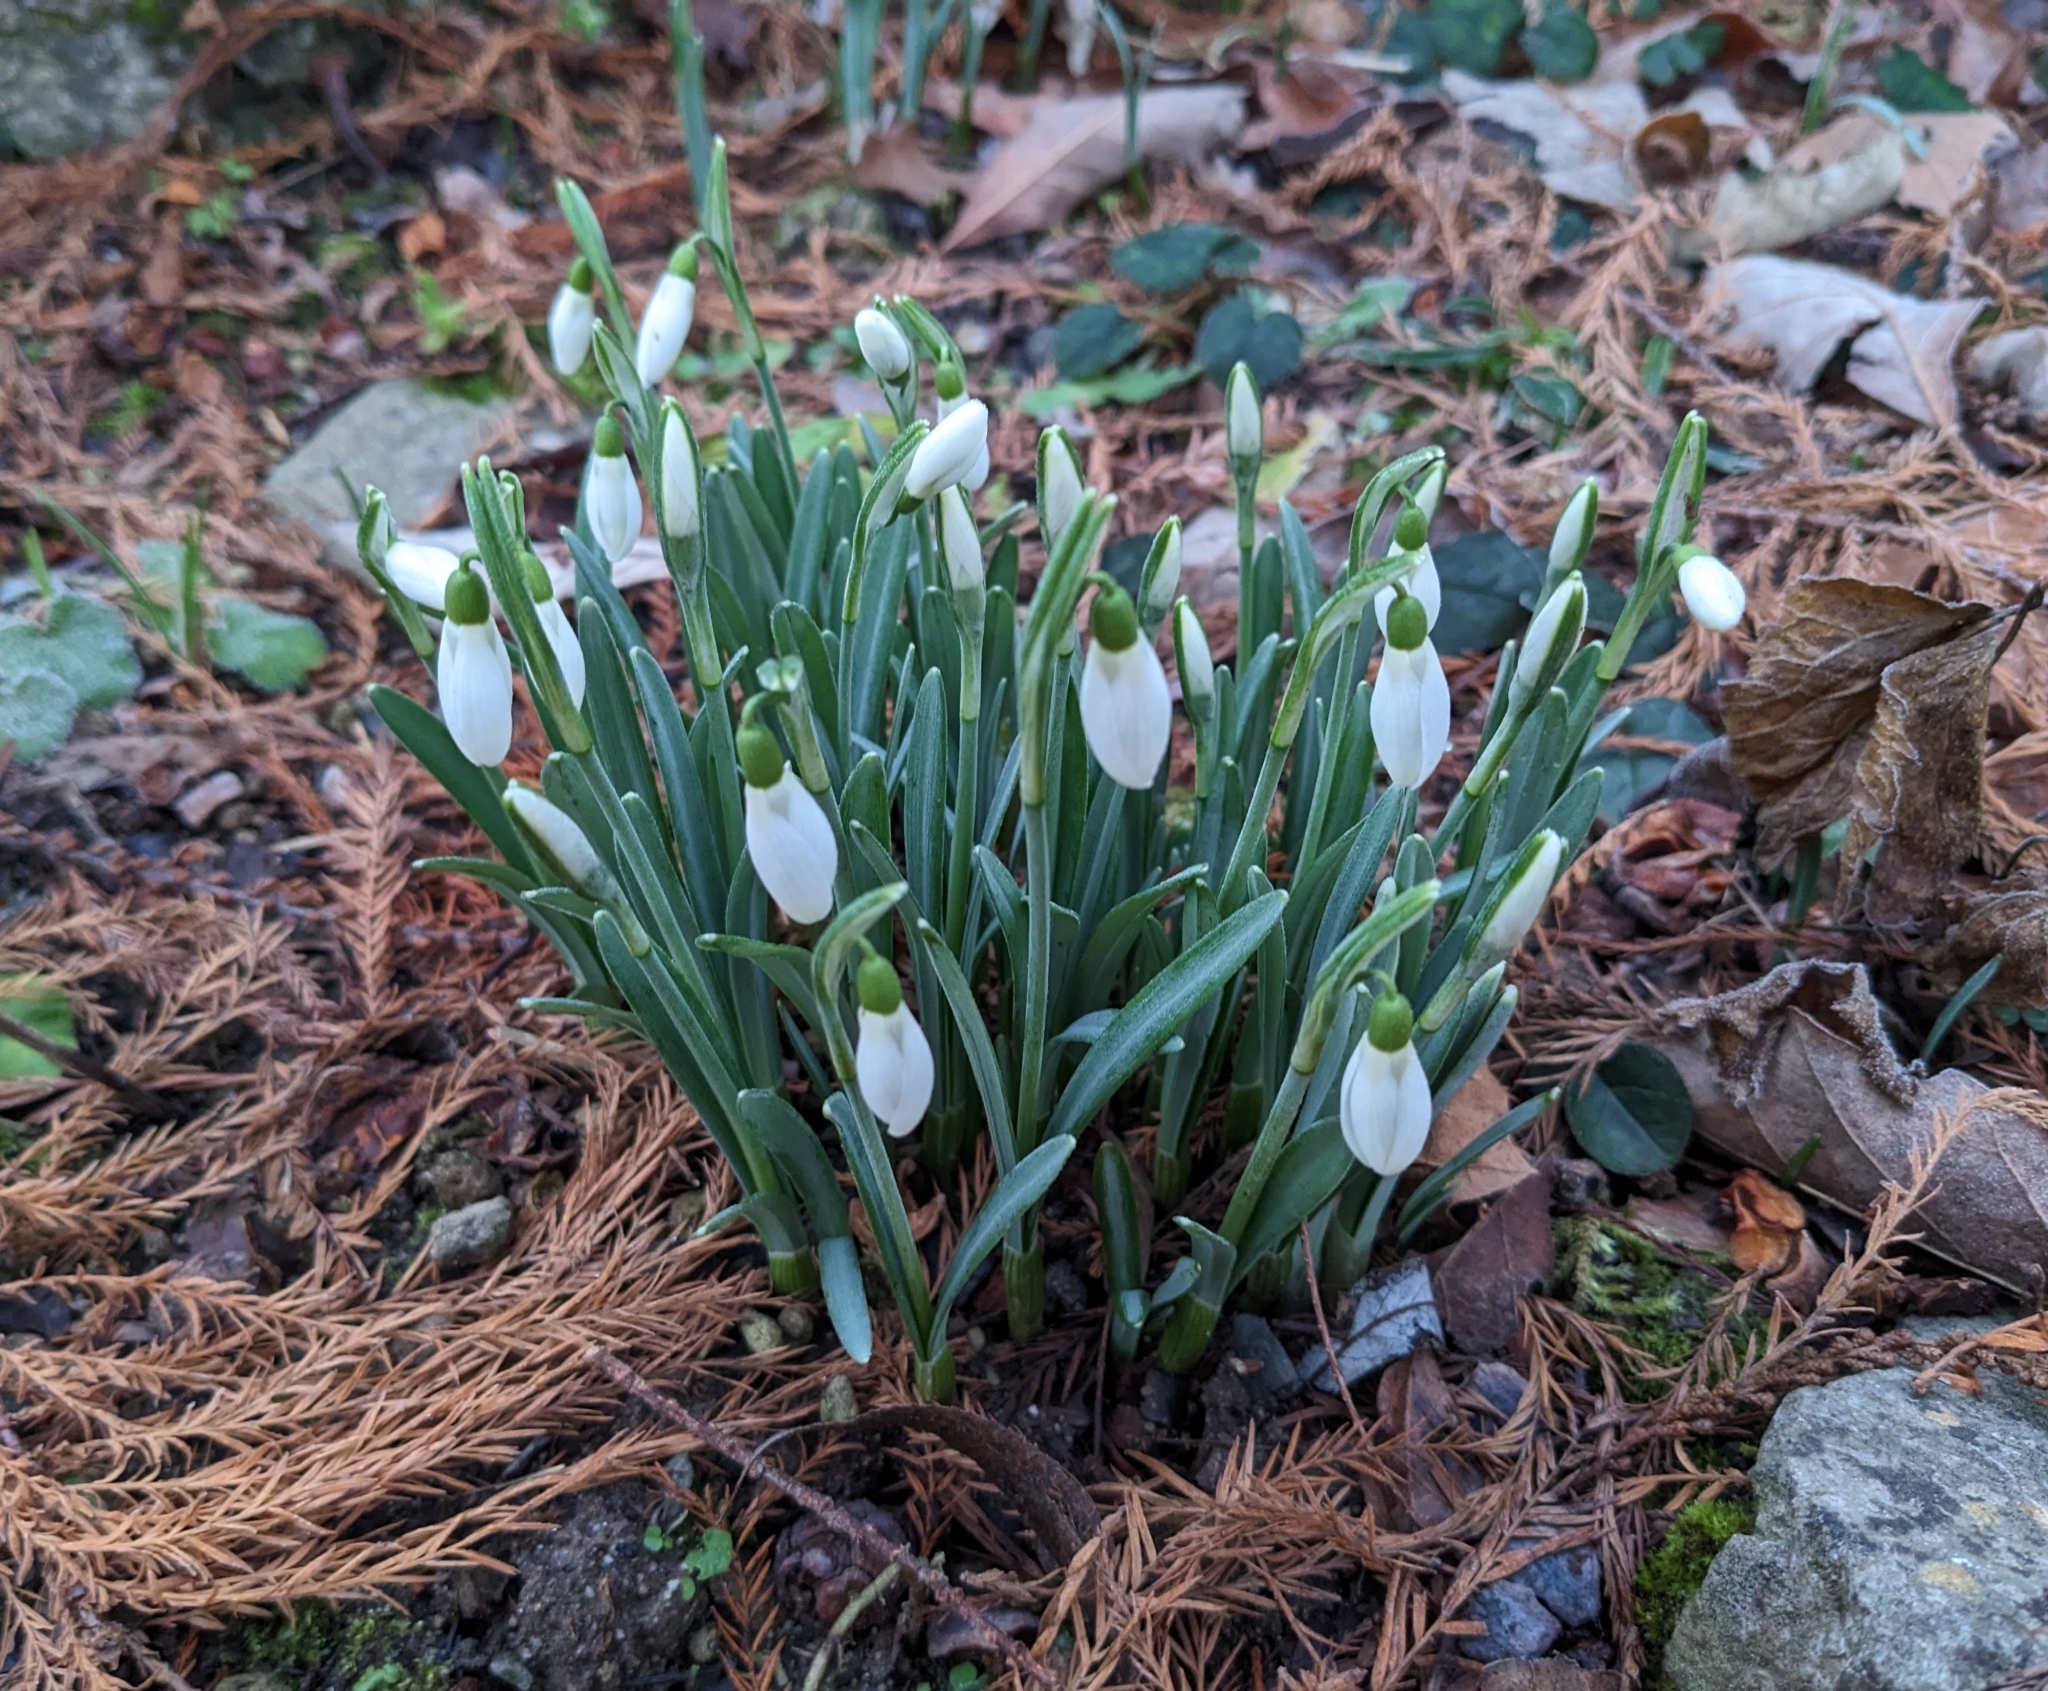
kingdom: Plantae
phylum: Tracheophyta
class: Liliopsida
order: Asparagales
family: Amaryllidaceae
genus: Galanthus
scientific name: Galanthus nivalis
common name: Snowdrop
